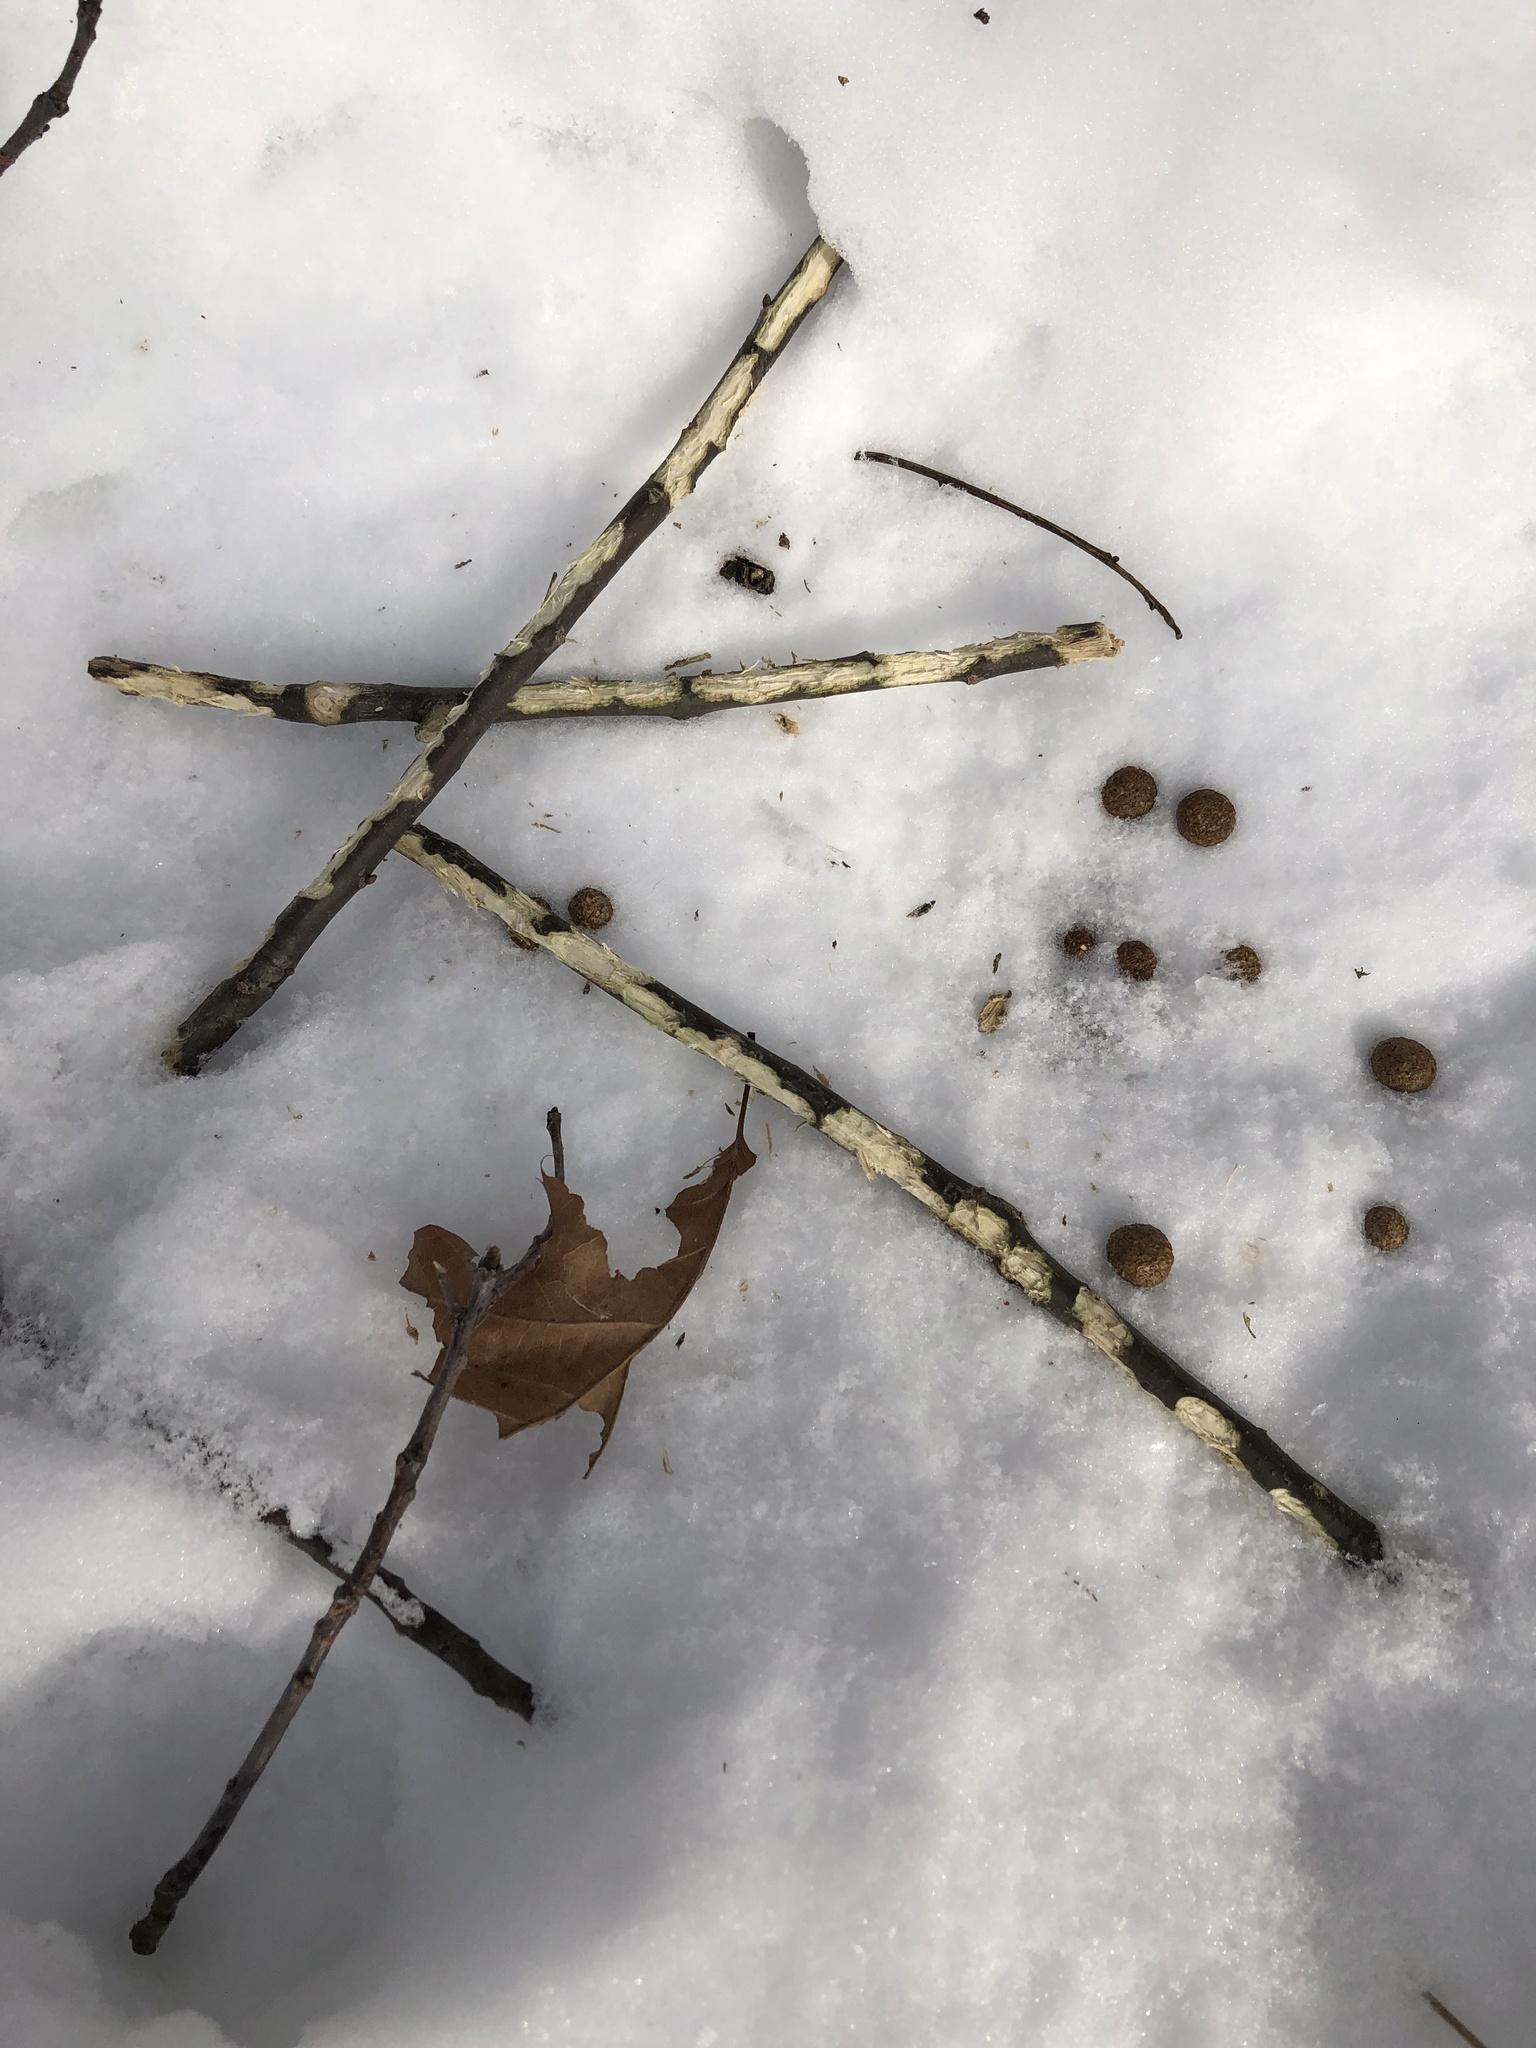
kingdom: Animalia
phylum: Chordata
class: Mammalia
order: Lagomorpha
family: Leporidae
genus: Sylvilagus
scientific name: Sylvilagus floridanus
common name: Eastern cottontail
